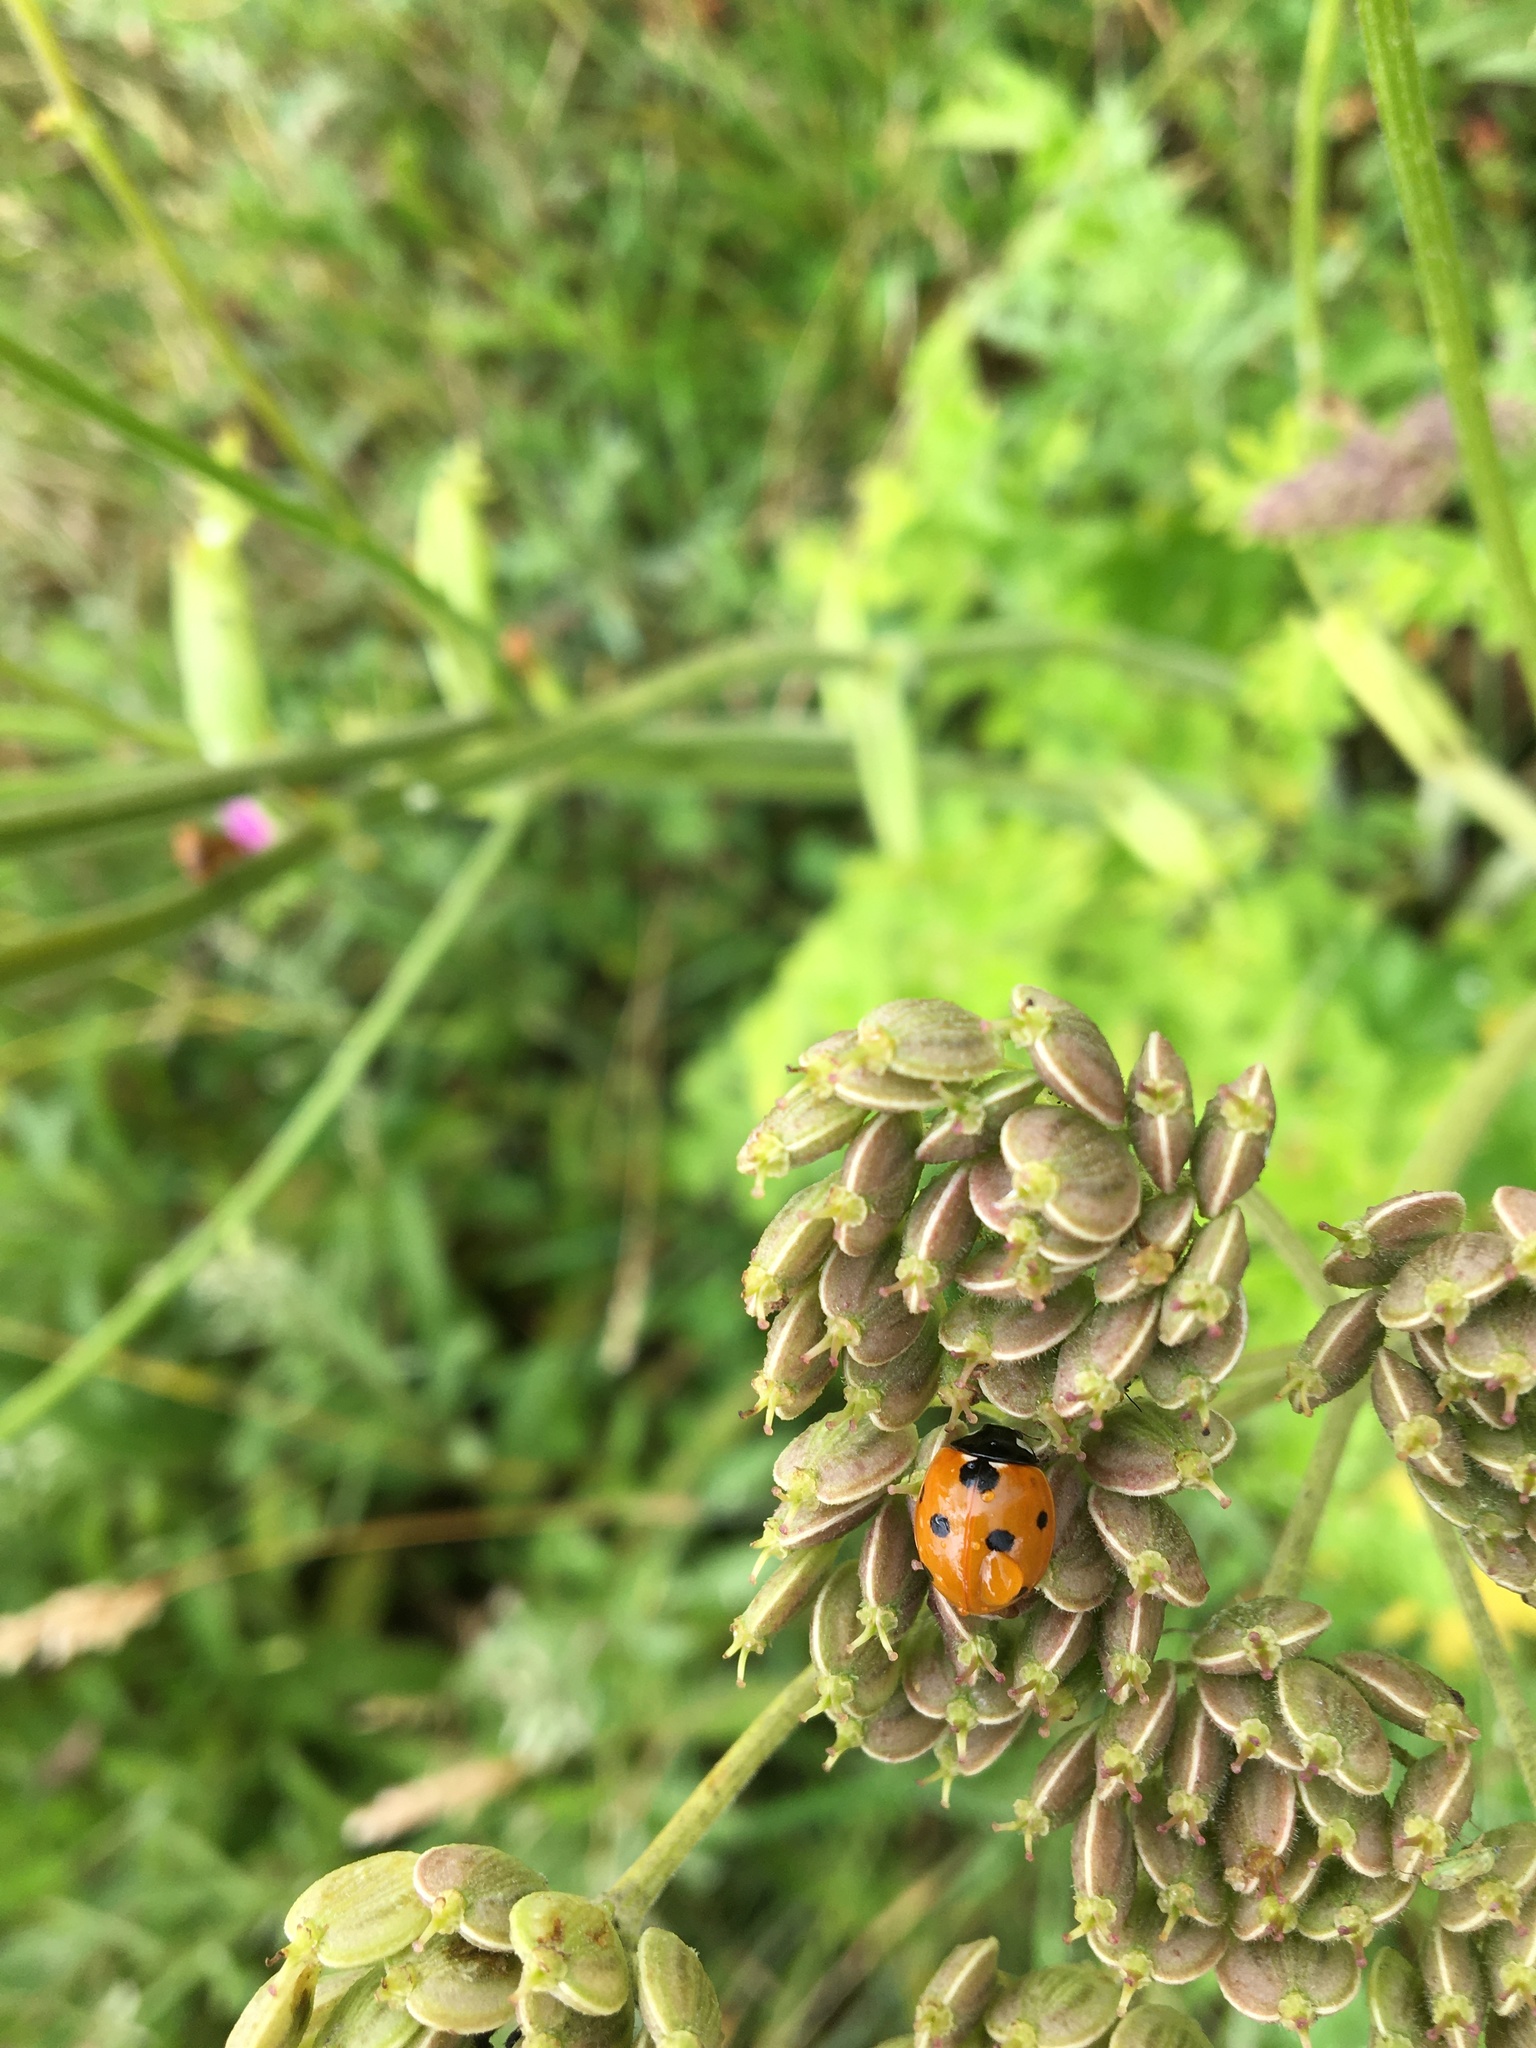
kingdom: Animalia
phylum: Arthropoda
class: Insecta
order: Coleoptera
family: Coccinellidae
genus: Coccinella
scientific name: Coccinella septempunctata
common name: Sevenspotted lady beetle
